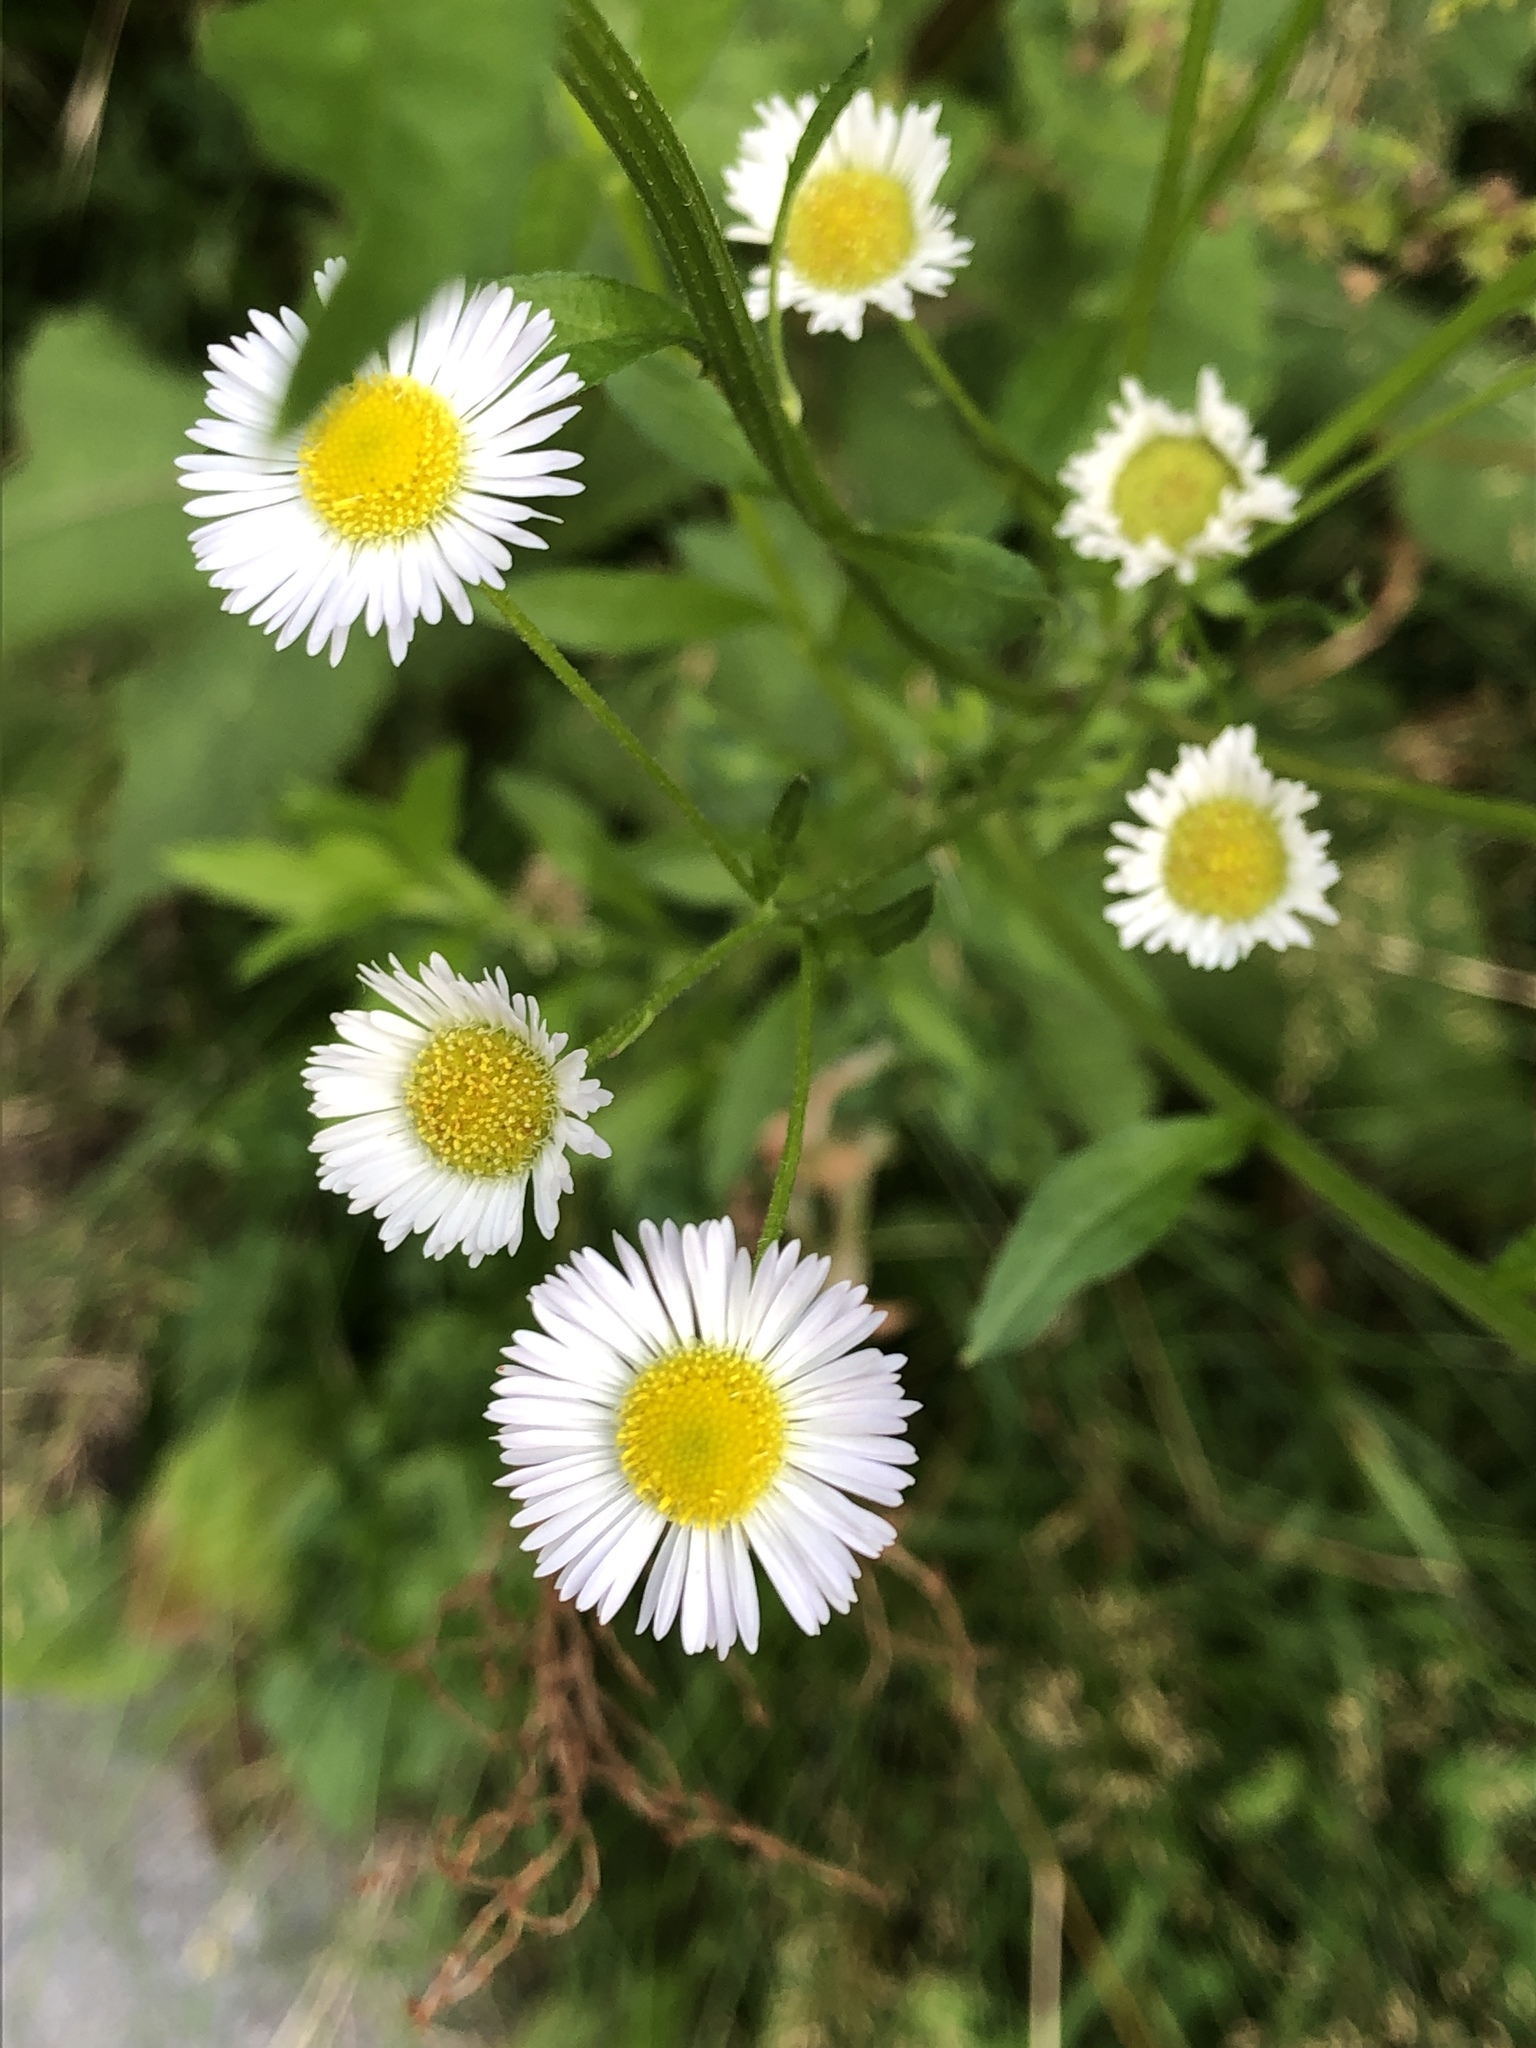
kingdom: Plantae
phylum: Tracheophyta
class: Magnoliopsida
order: Asterales
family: Asteraceae
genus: Erigeron
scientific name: Erigeron annuus
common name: Tall fleabane
